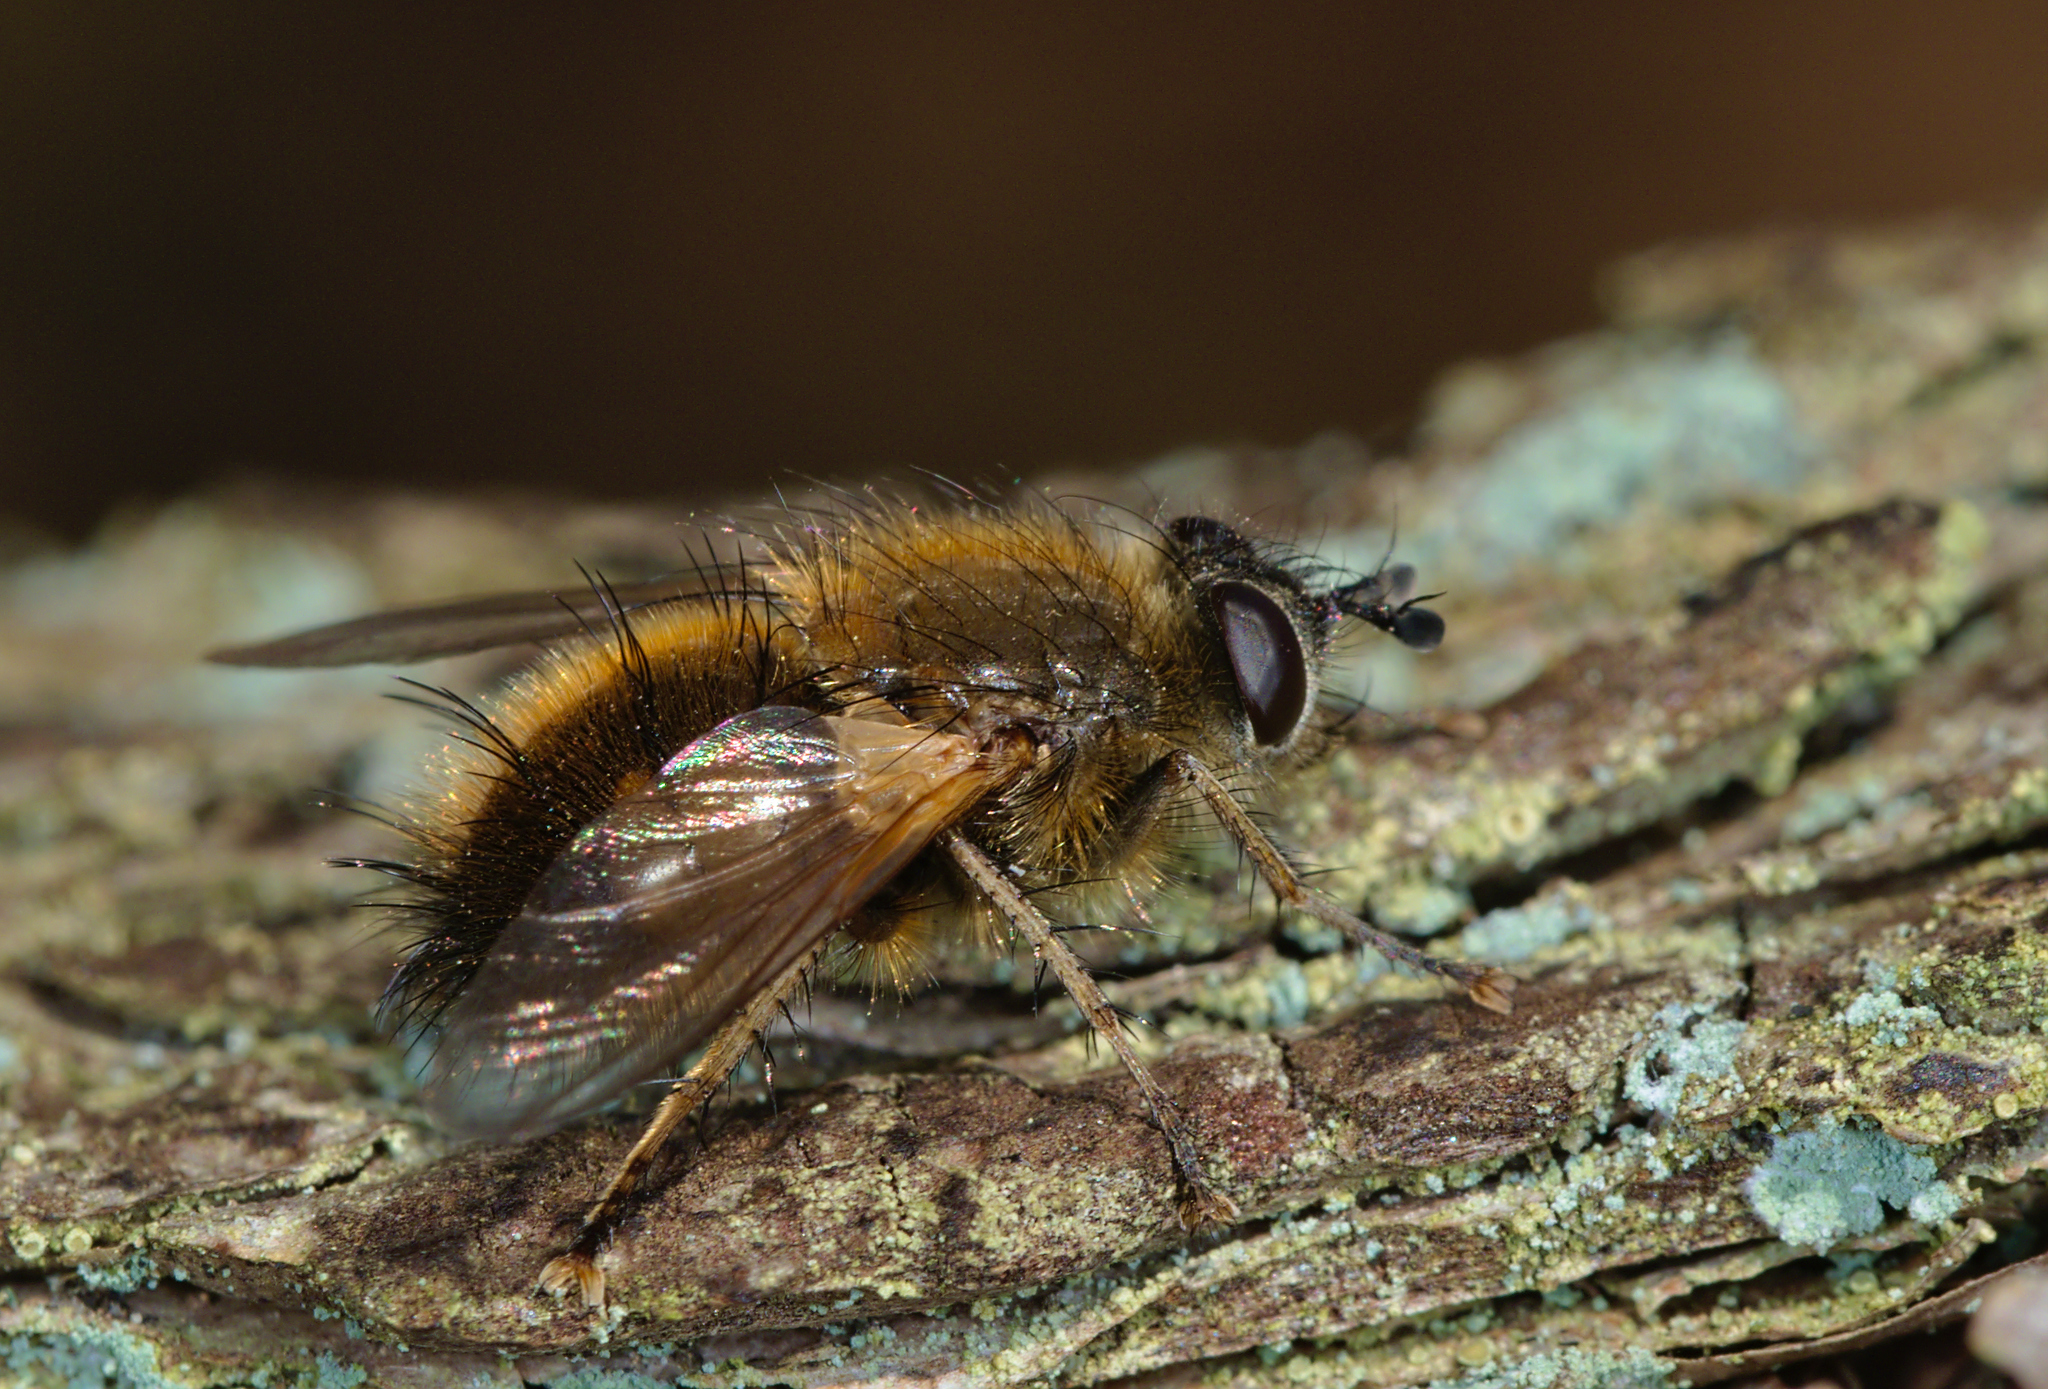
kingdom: Animalia
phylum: Arthropoda
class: Insecta
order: Diptera
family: Tachinidae
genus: Tachina
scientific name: Tachina lurida
